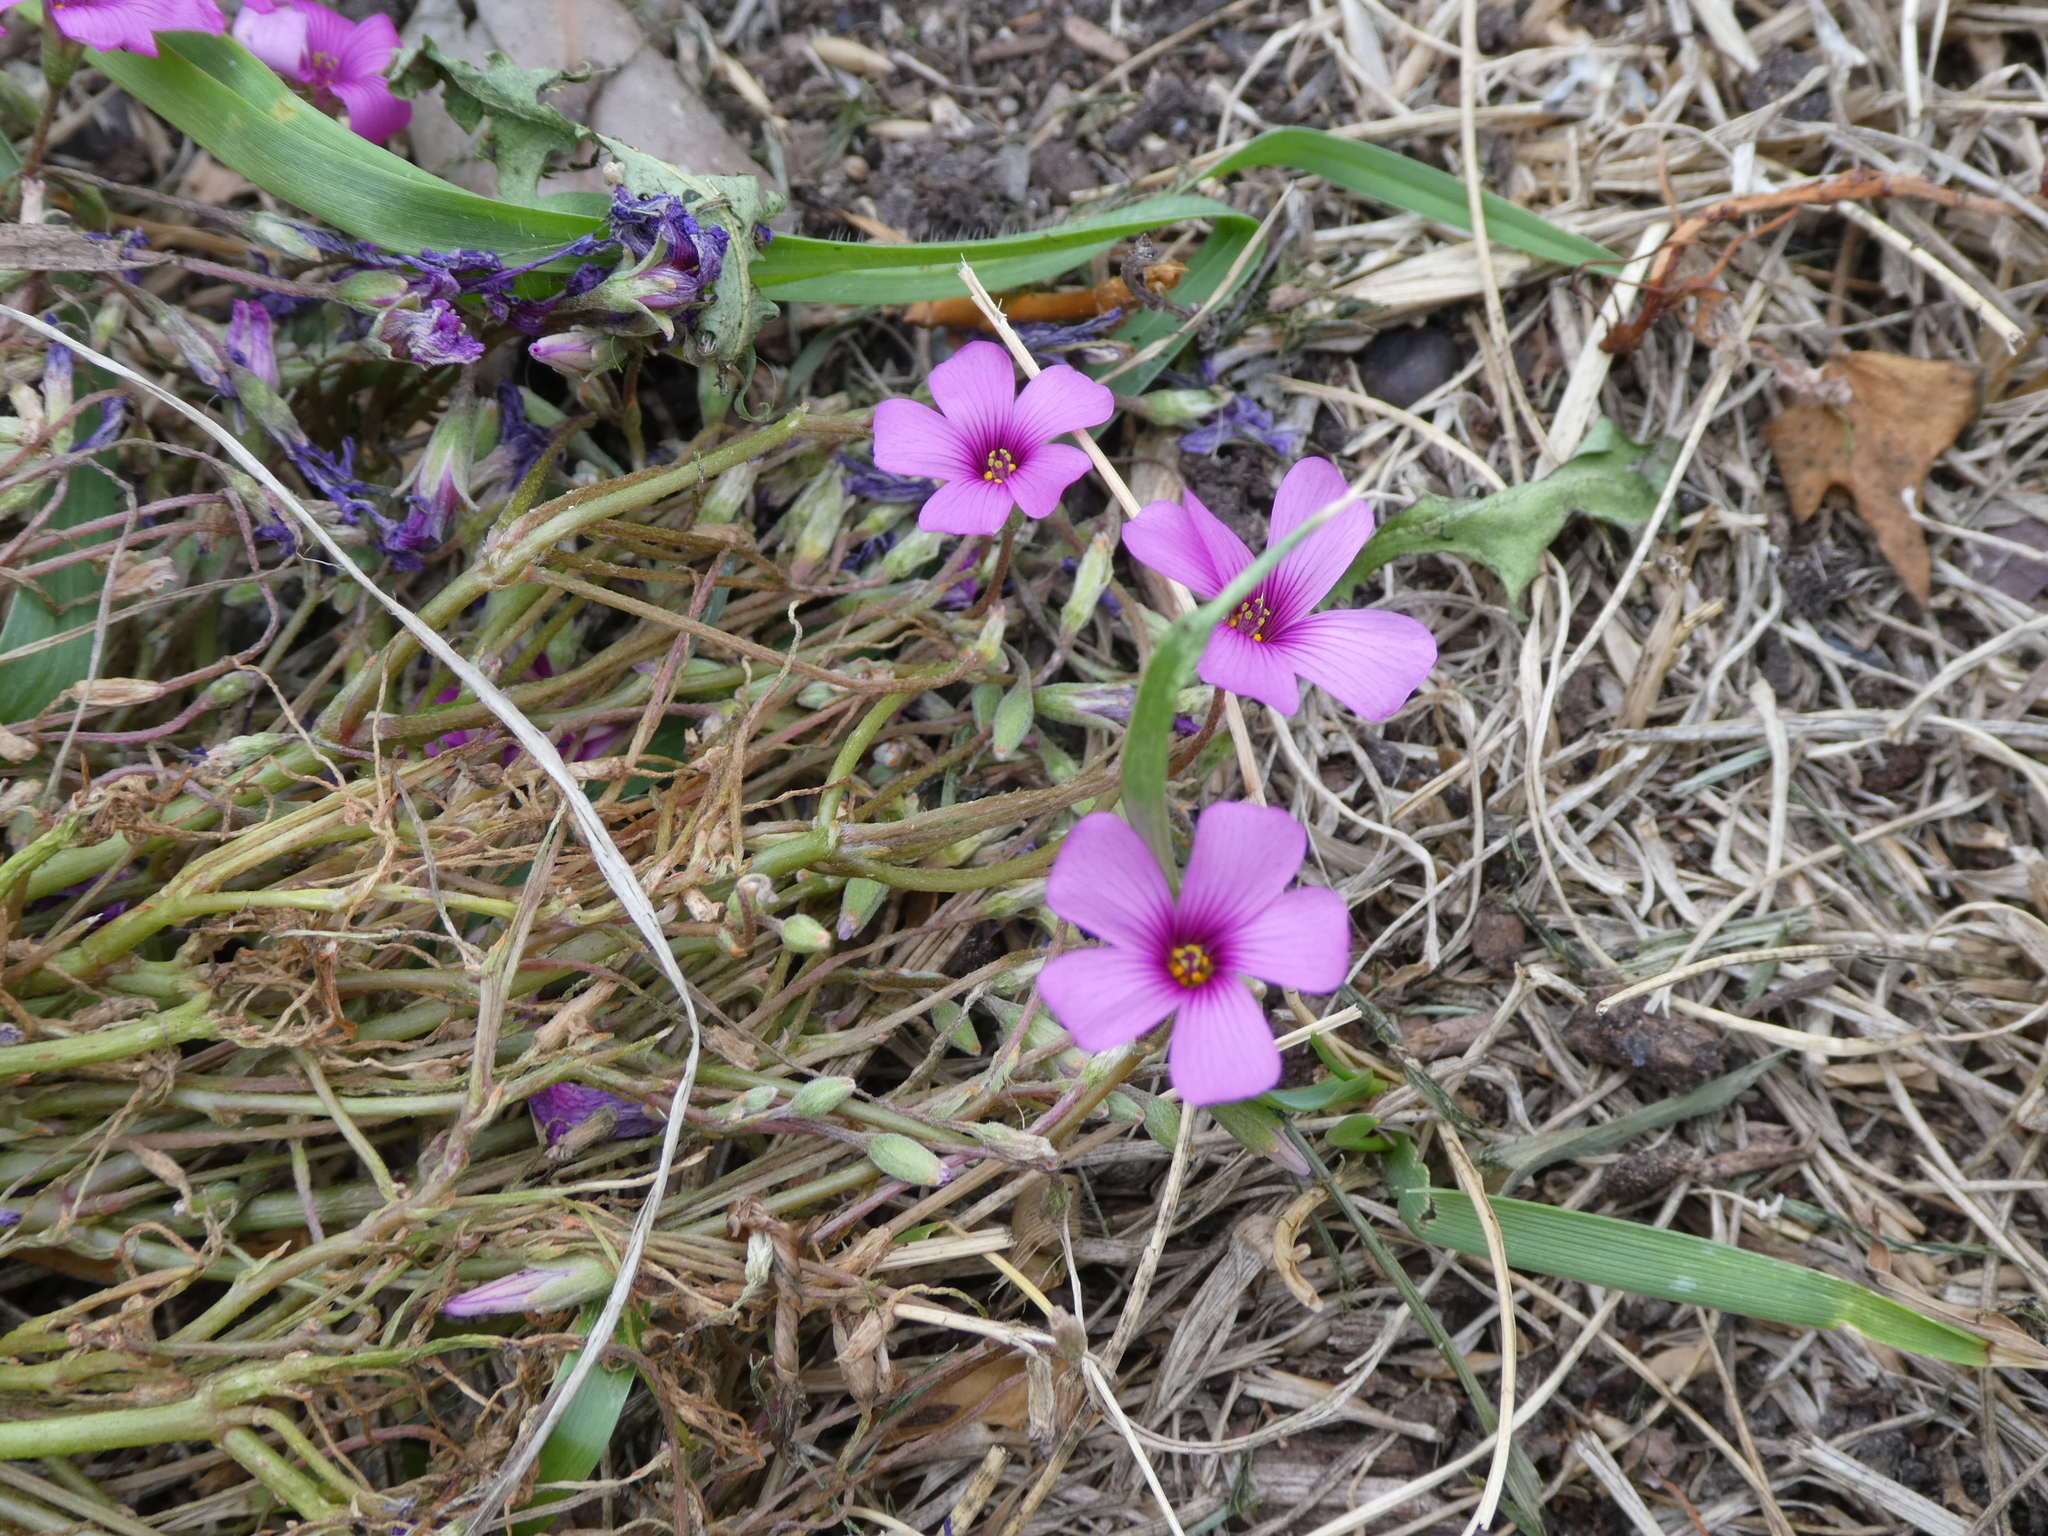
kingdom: Plantae
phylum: Tracheophyta
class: Magnoliopsida
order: Oxalidales
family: Oxalidaceae
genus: Oxalis
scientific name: Oxalis articulata
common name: Pink-sorrel
